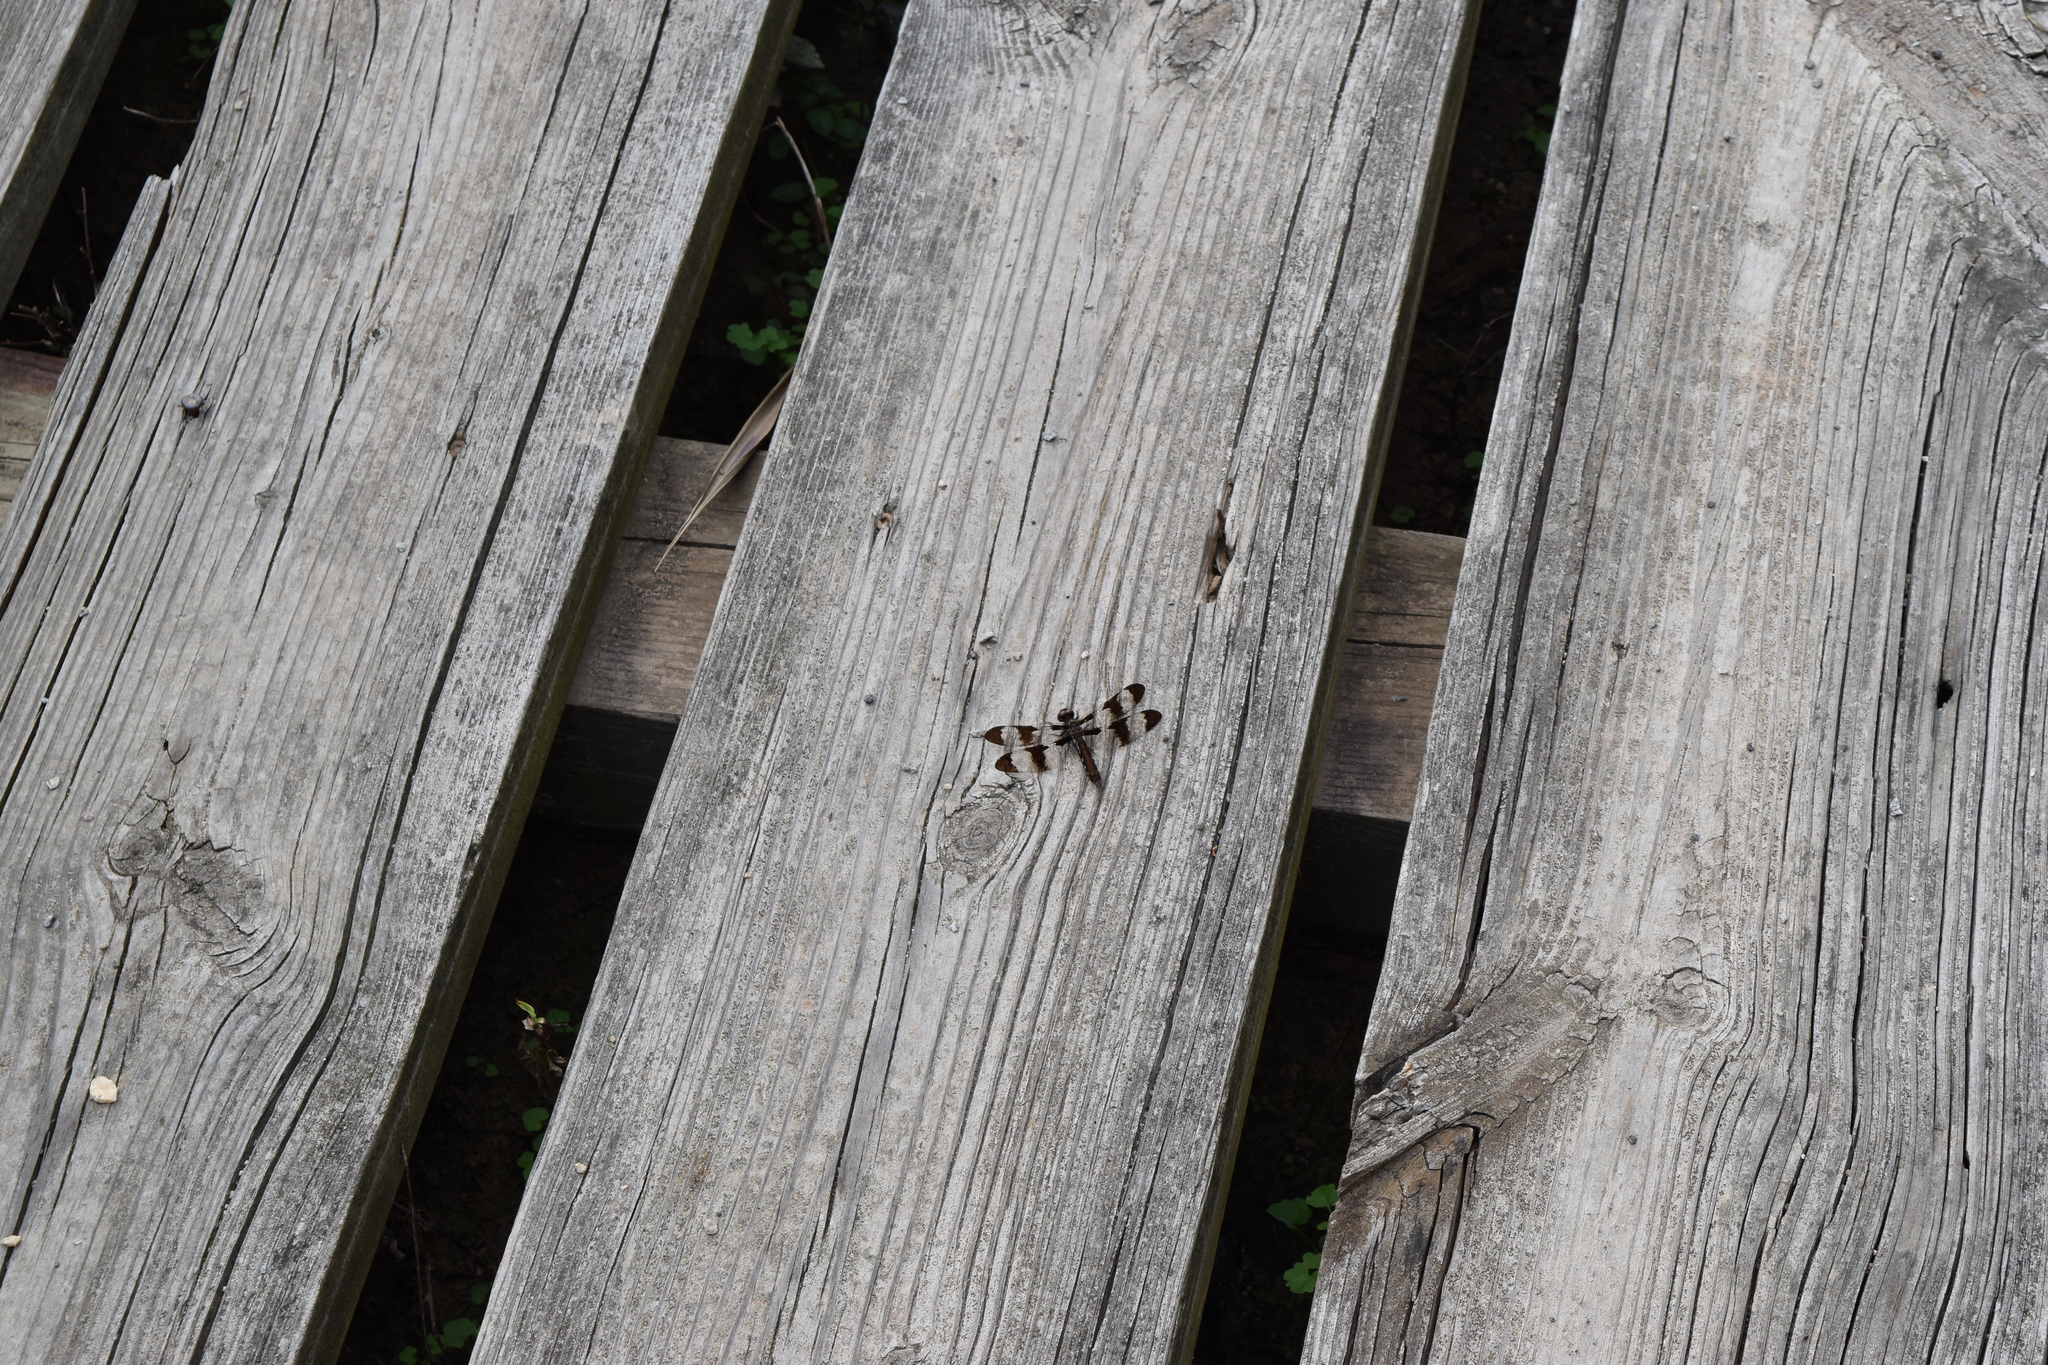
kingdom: Animalia
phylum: Arthropoda
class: Insecta
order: Odonata
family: Libellulidae
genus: Plathemis
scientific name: Plathemis lydia
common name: Common whitetail
